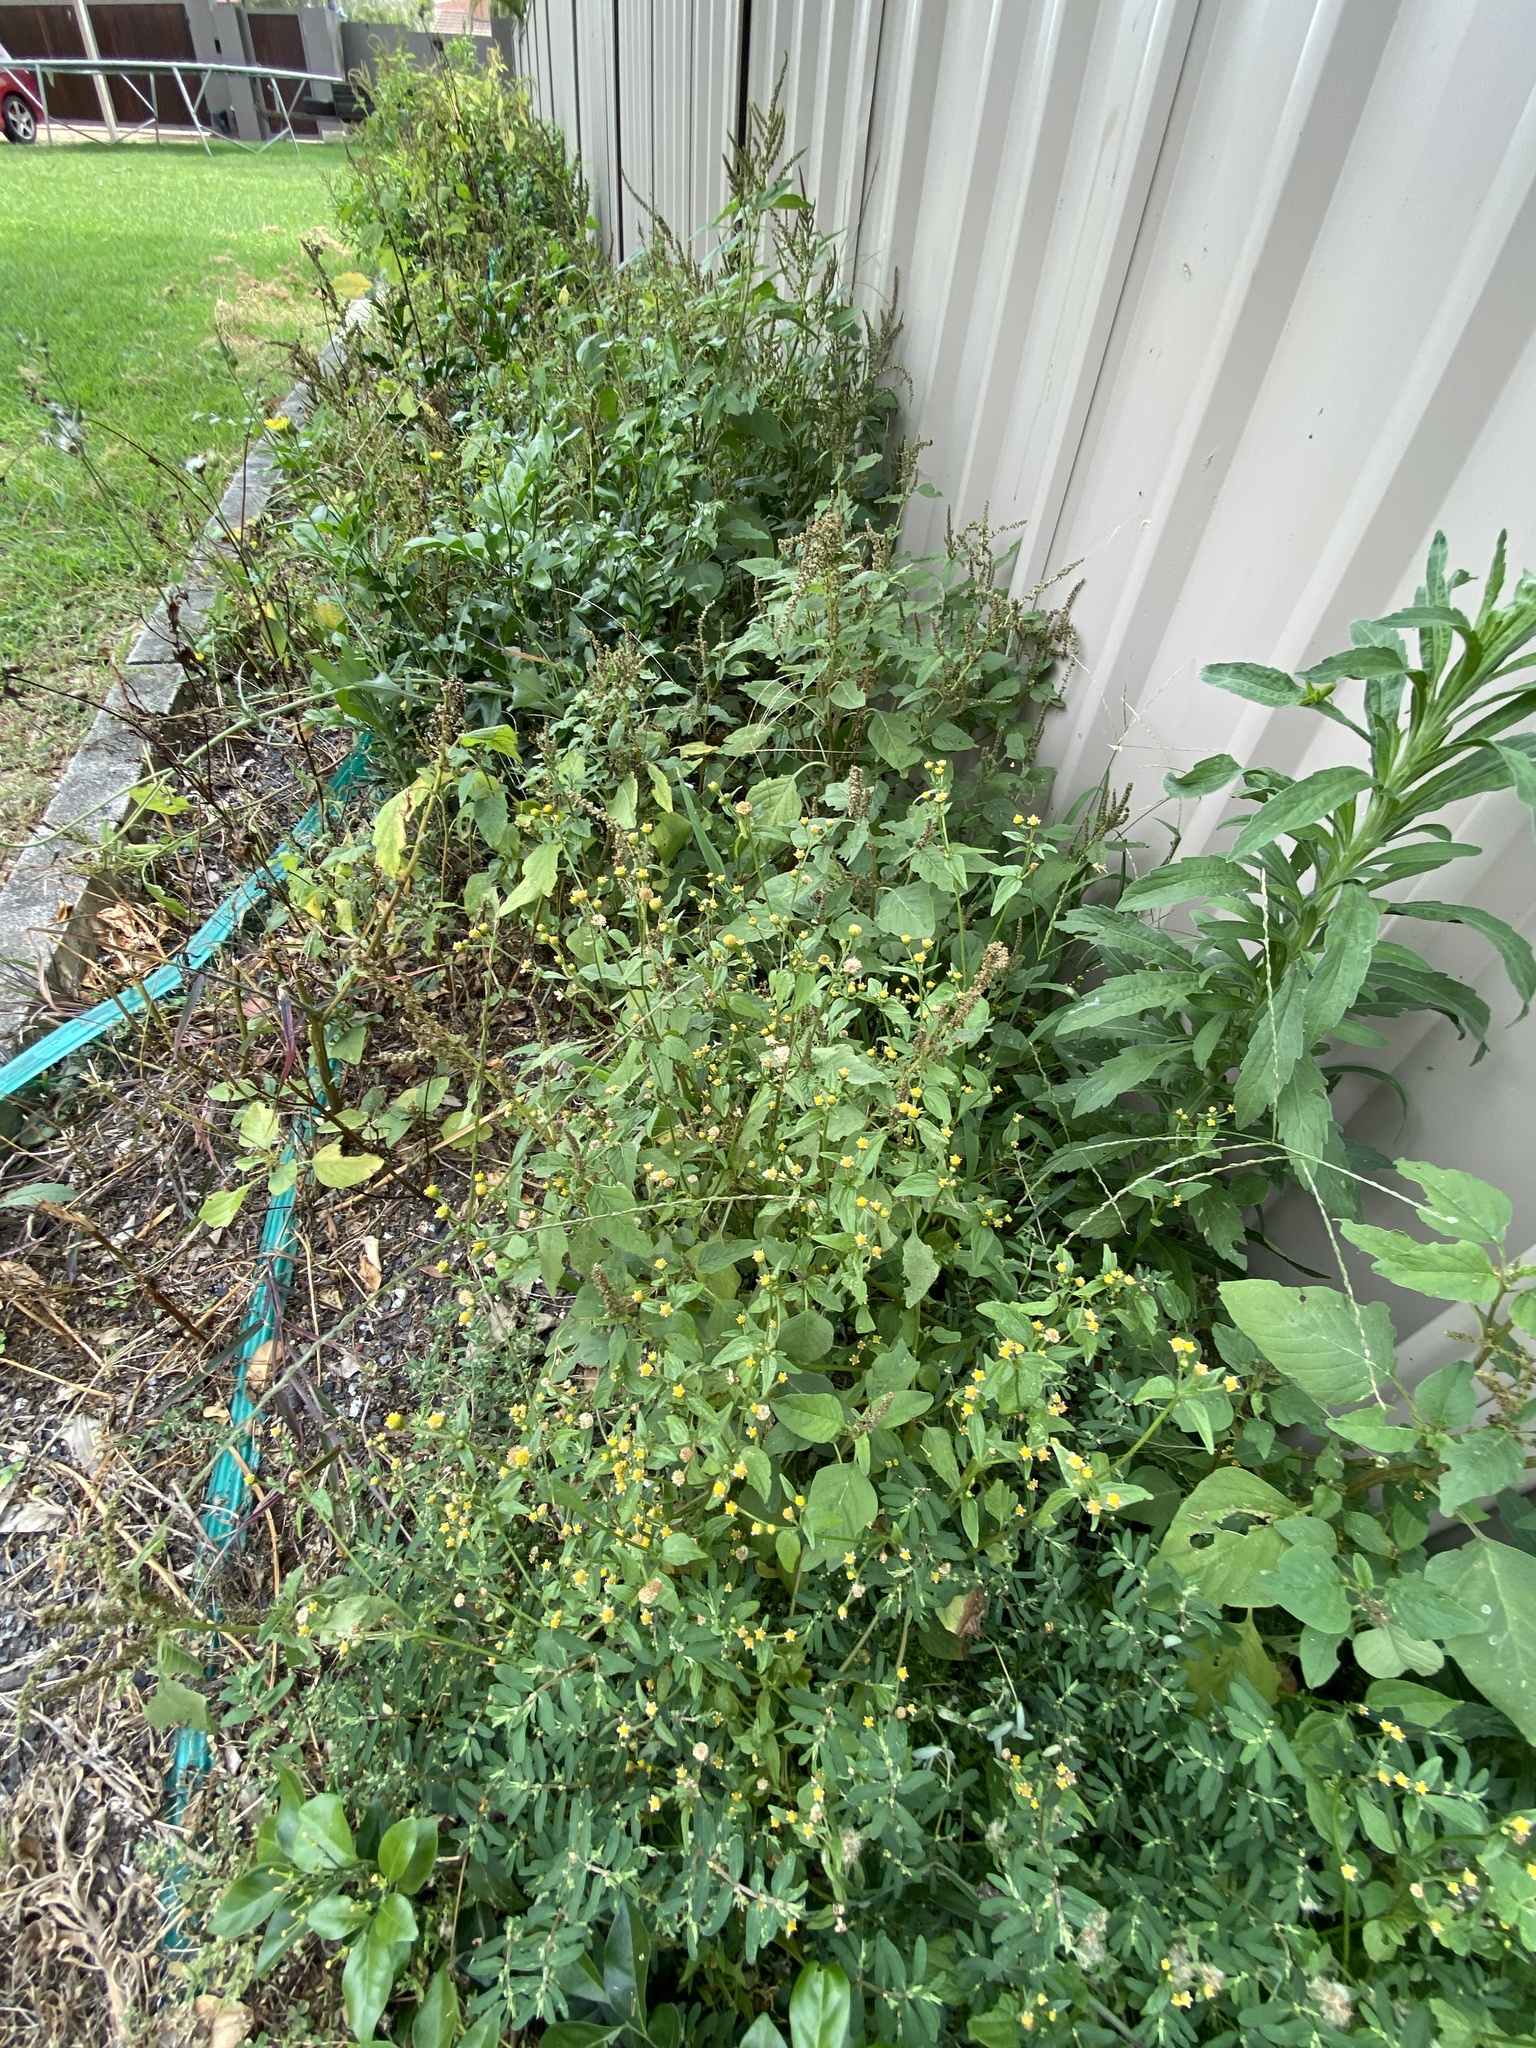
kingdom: Plantae
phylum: Tracheophyta
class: Magnoliopsida
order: Asterales
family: Asteraceae
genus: Galinsoga
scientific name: Galinsoga parviflora
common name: Gallant soldier
